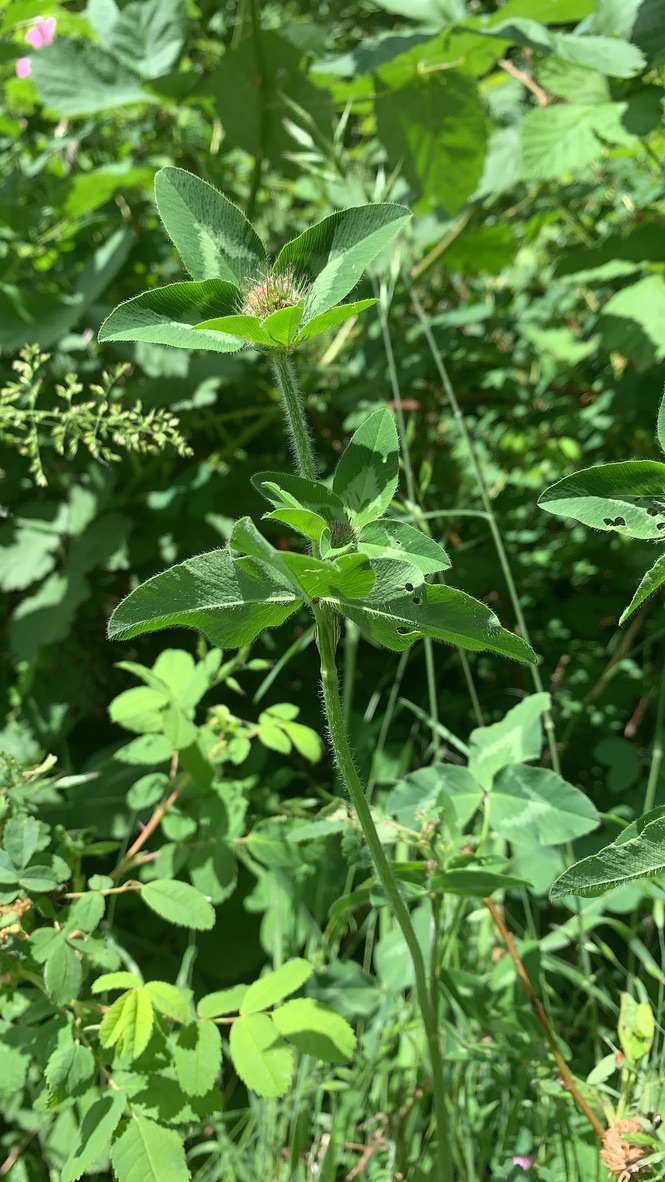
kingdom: Plantae
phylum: Tracheophyta
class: Magnoliopsida
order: Fabales
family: Fabaceae
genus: Trifolium
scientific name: Trifolium pratense
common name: Red clover
